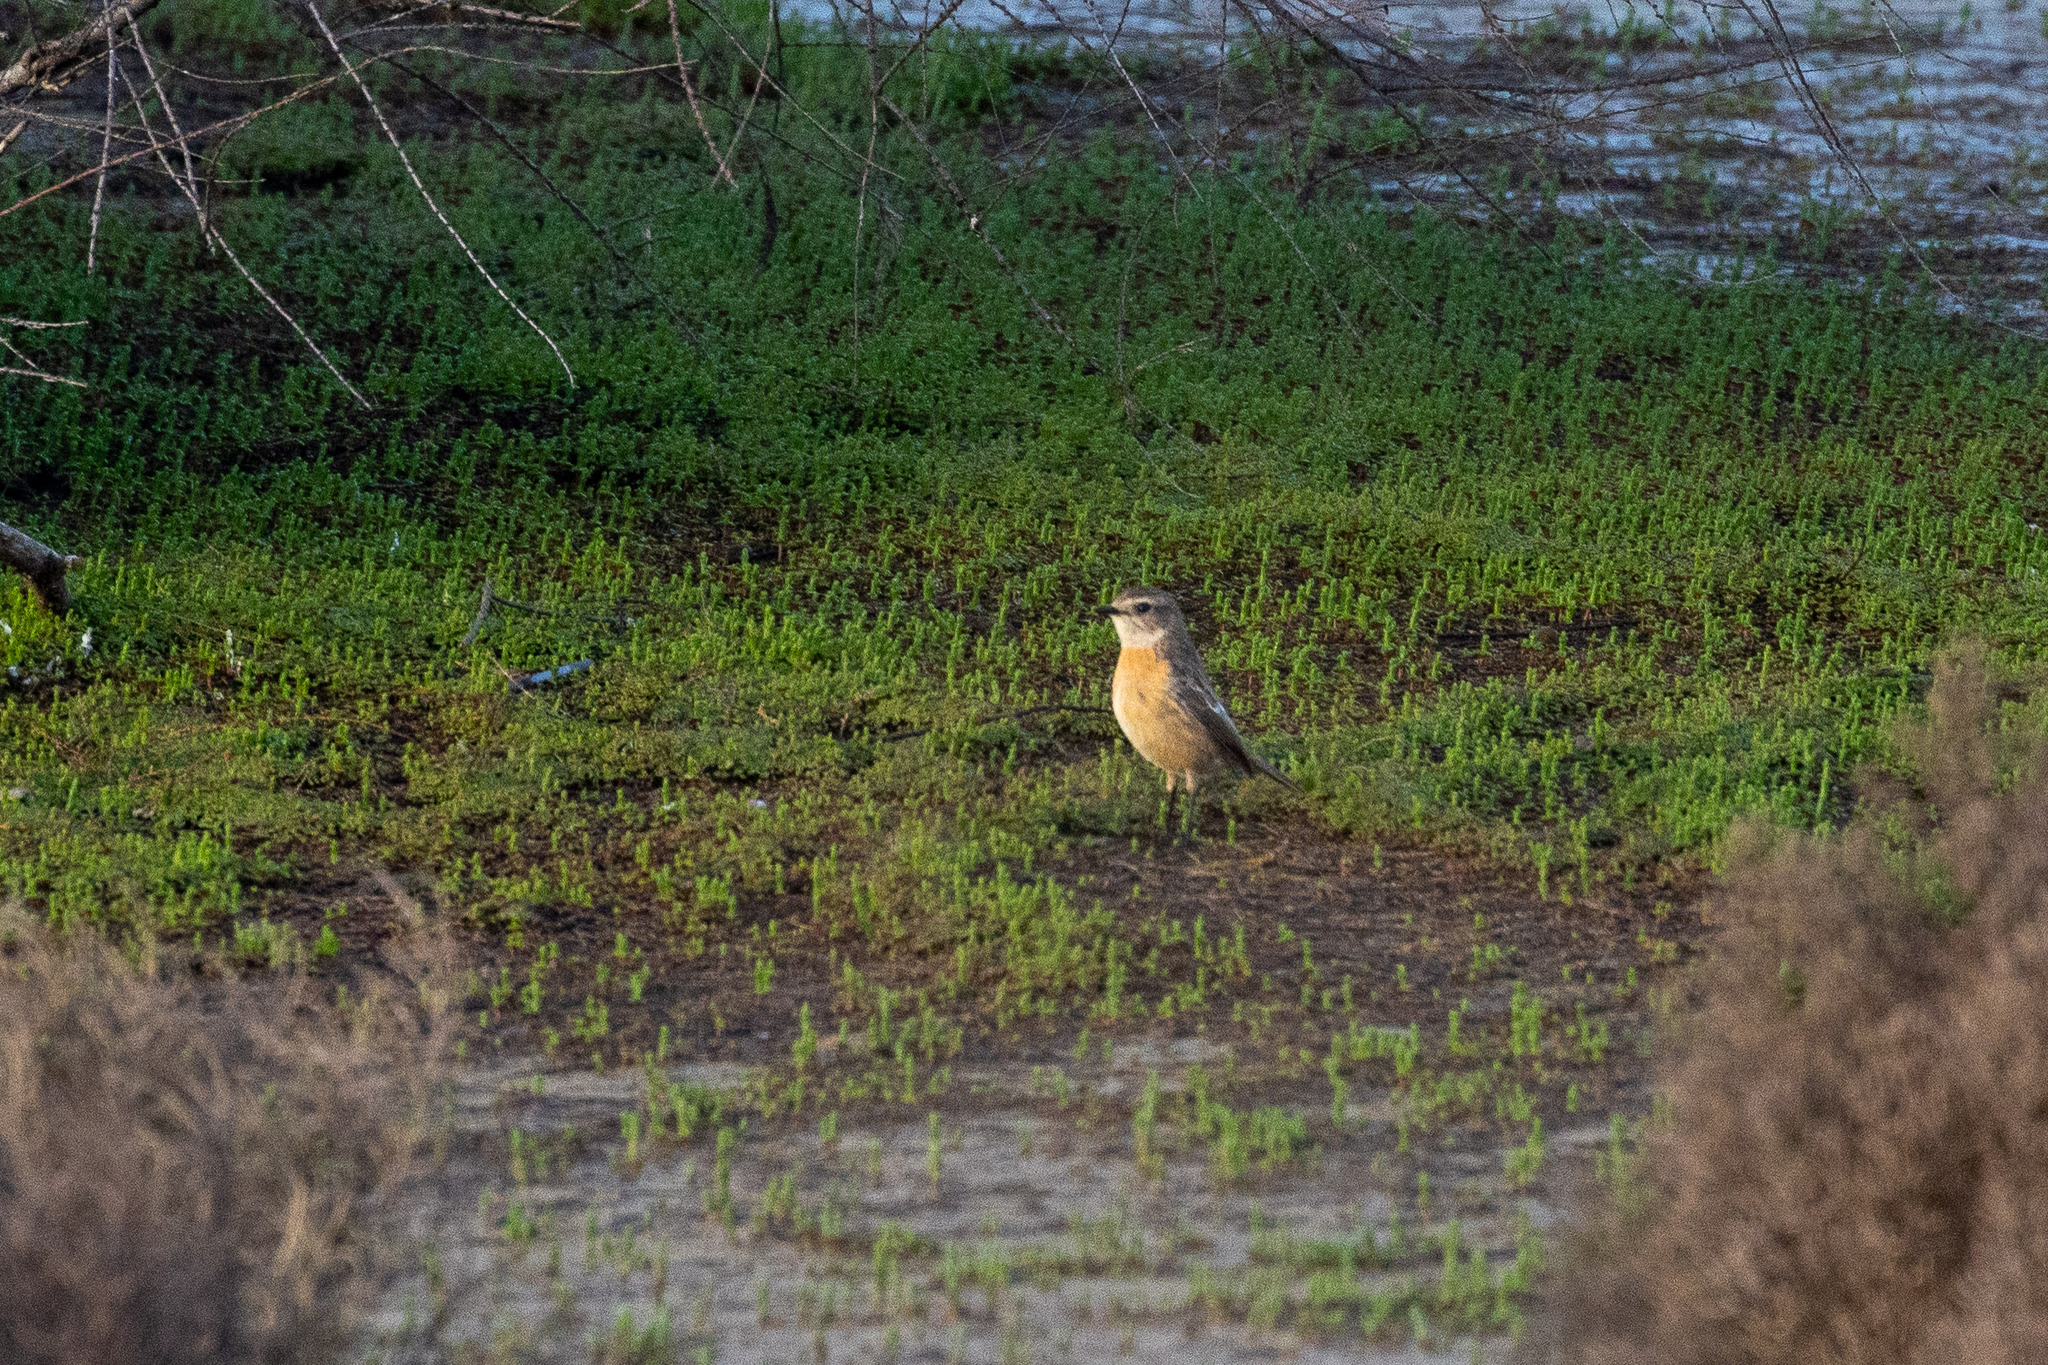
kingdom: Animalia
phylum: Chordata
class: Aves
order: Passeriformes
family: Muscicapidae
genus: Saxicola
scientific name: Saxicola rubicola
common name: European stonechat
